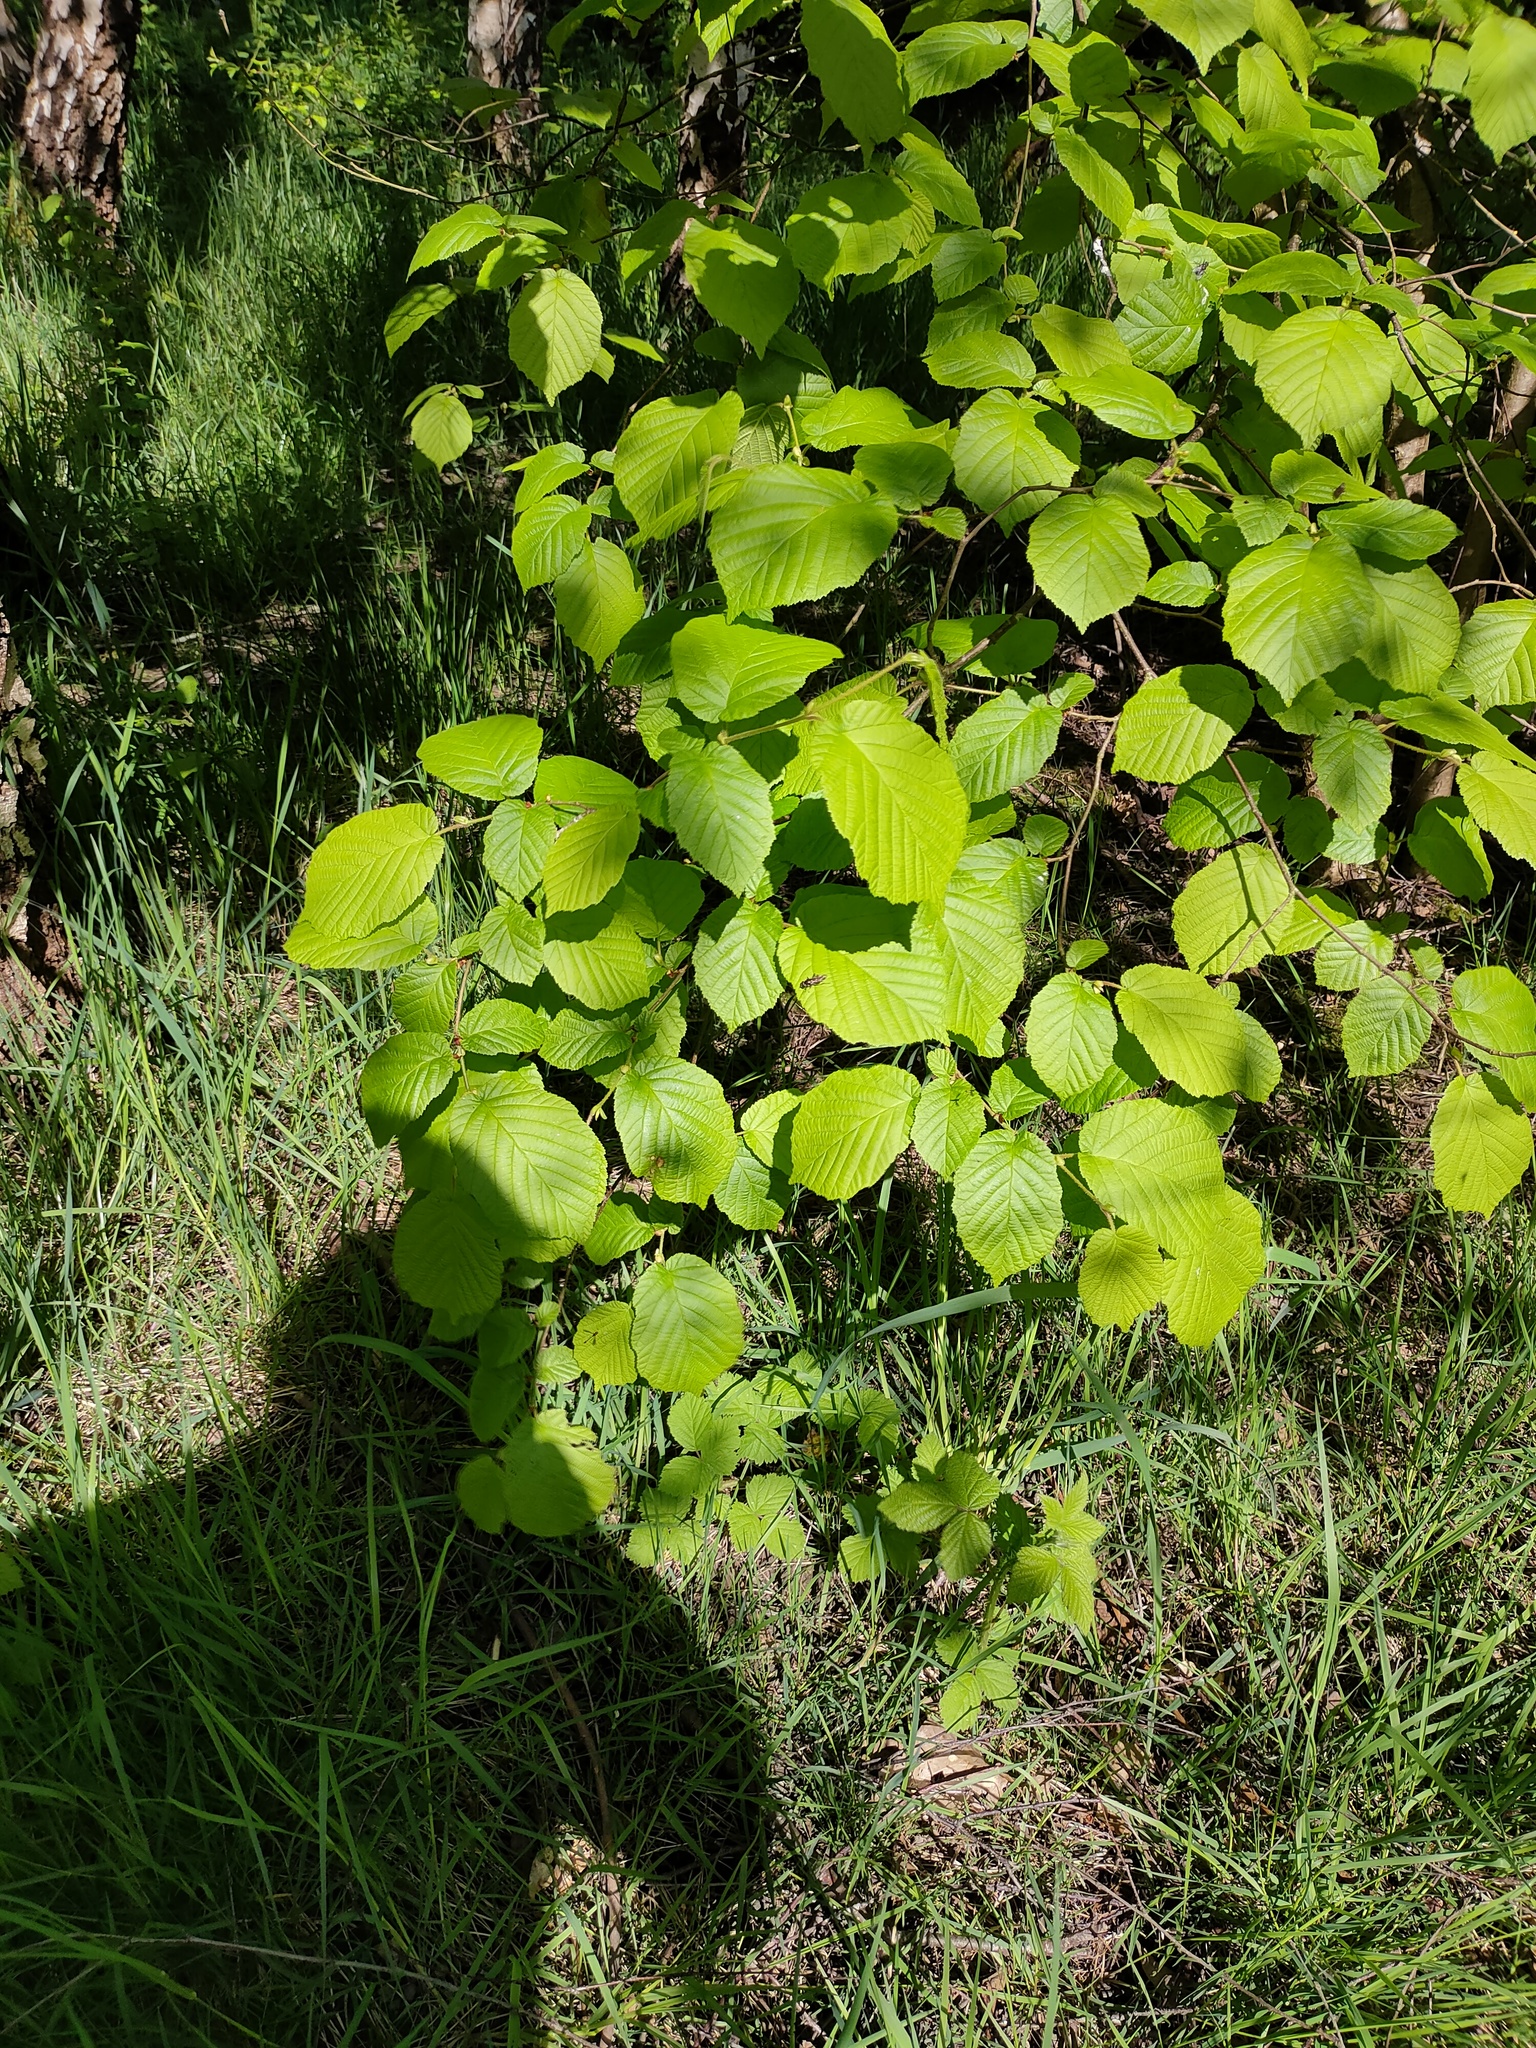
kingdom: Plantae
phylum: Tracheophyta
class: Magnoliopsida
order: Fagales
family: Betulaceae
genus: Corylus
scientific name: Corylus avellana
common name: European hazel
